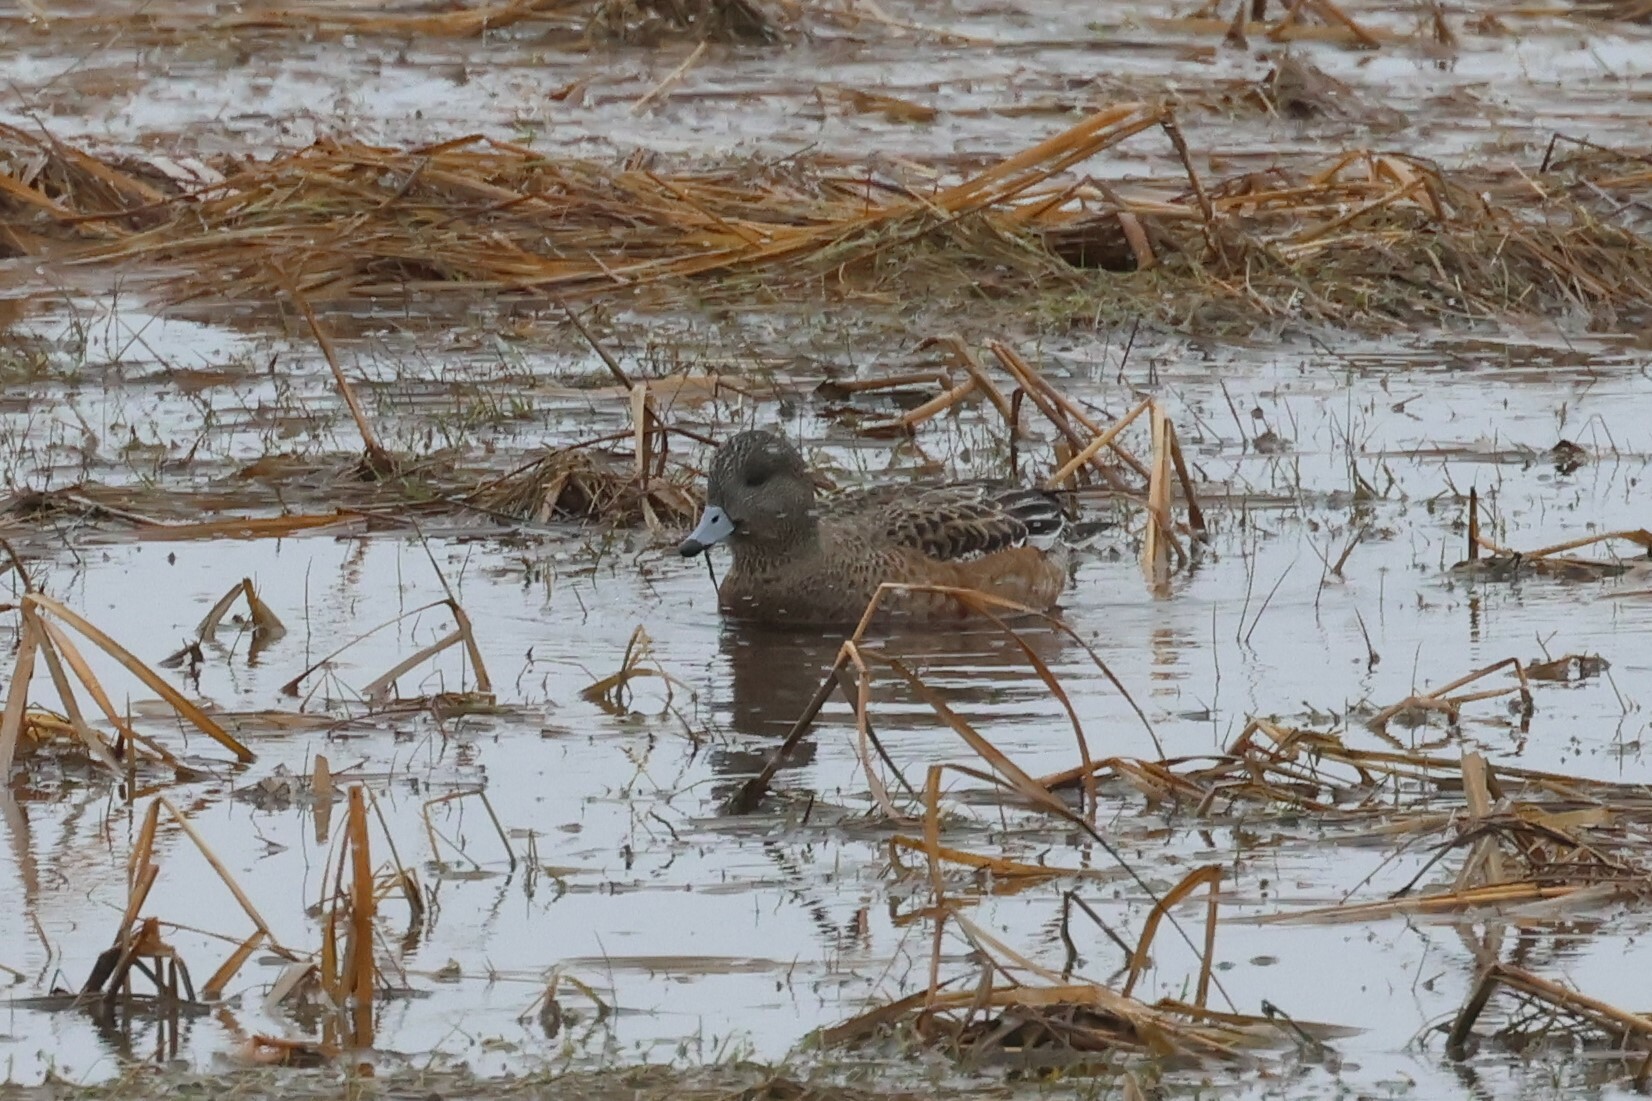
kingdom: Animalia
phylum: Chordata
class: Aves
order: Anseriformes
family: Anatidae
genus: Mareca
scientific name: Mareca americana
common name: American wigeon
